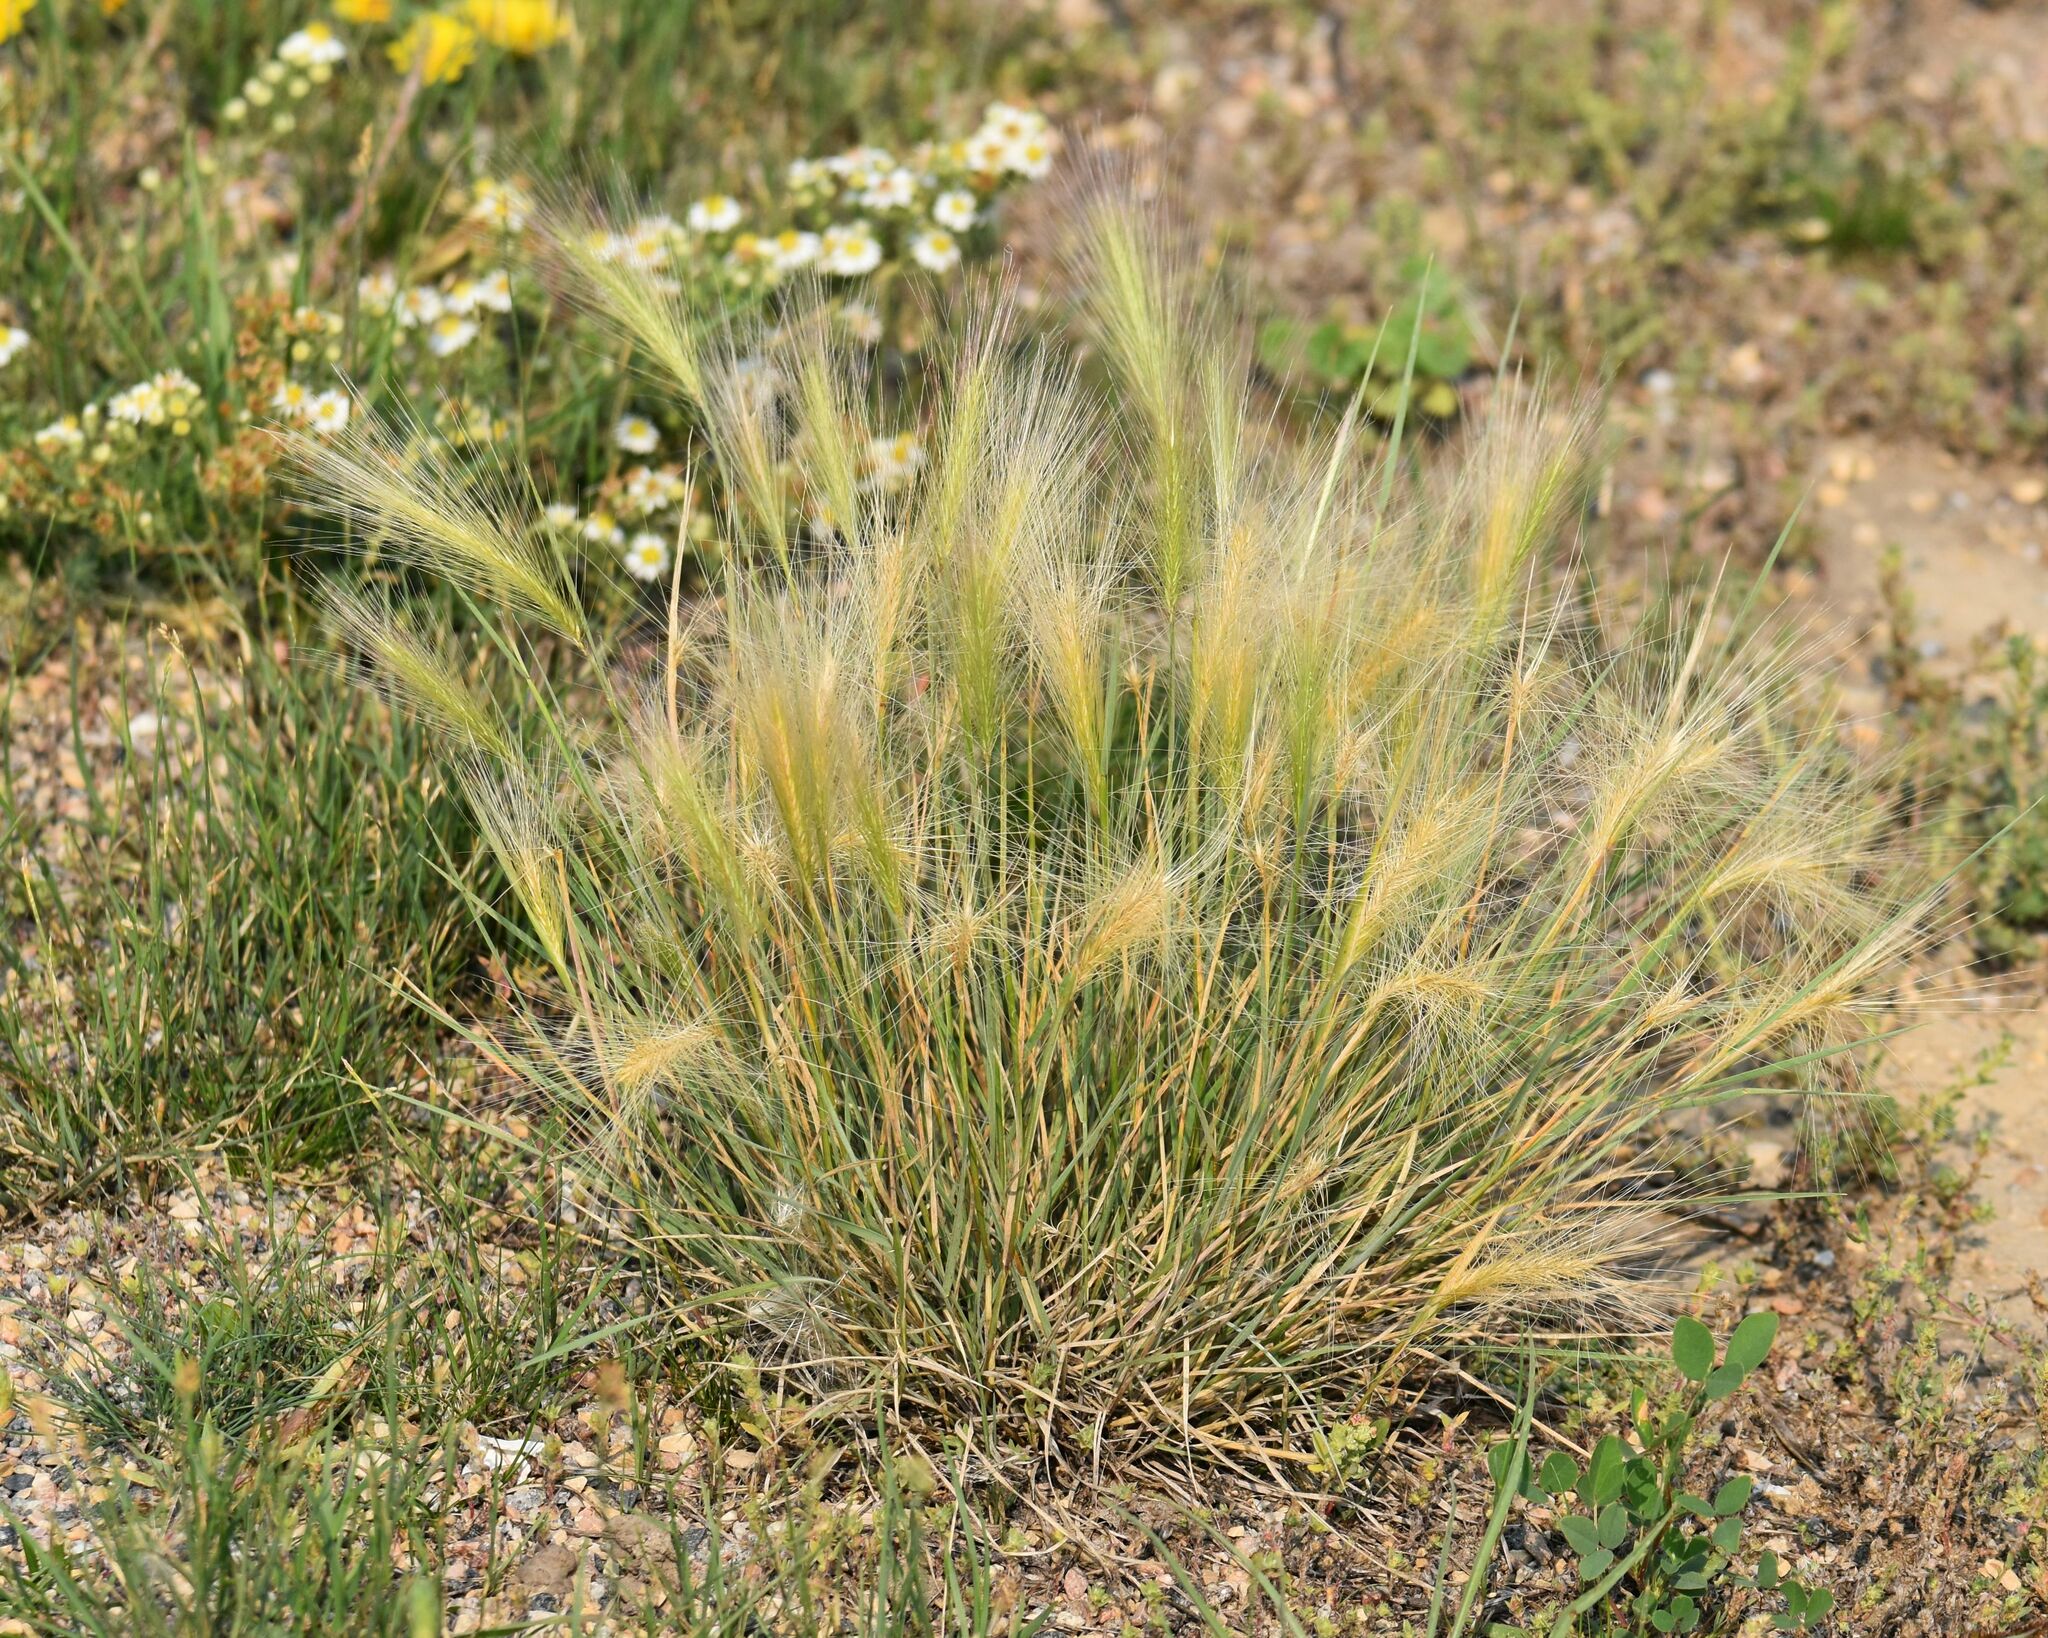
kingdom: Plantae
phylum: Tracheophyta
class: Liliopsida
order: Poales
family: Poaceae
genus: Hordeum
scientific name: Hordeum jubatum
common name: Foxtail barley
